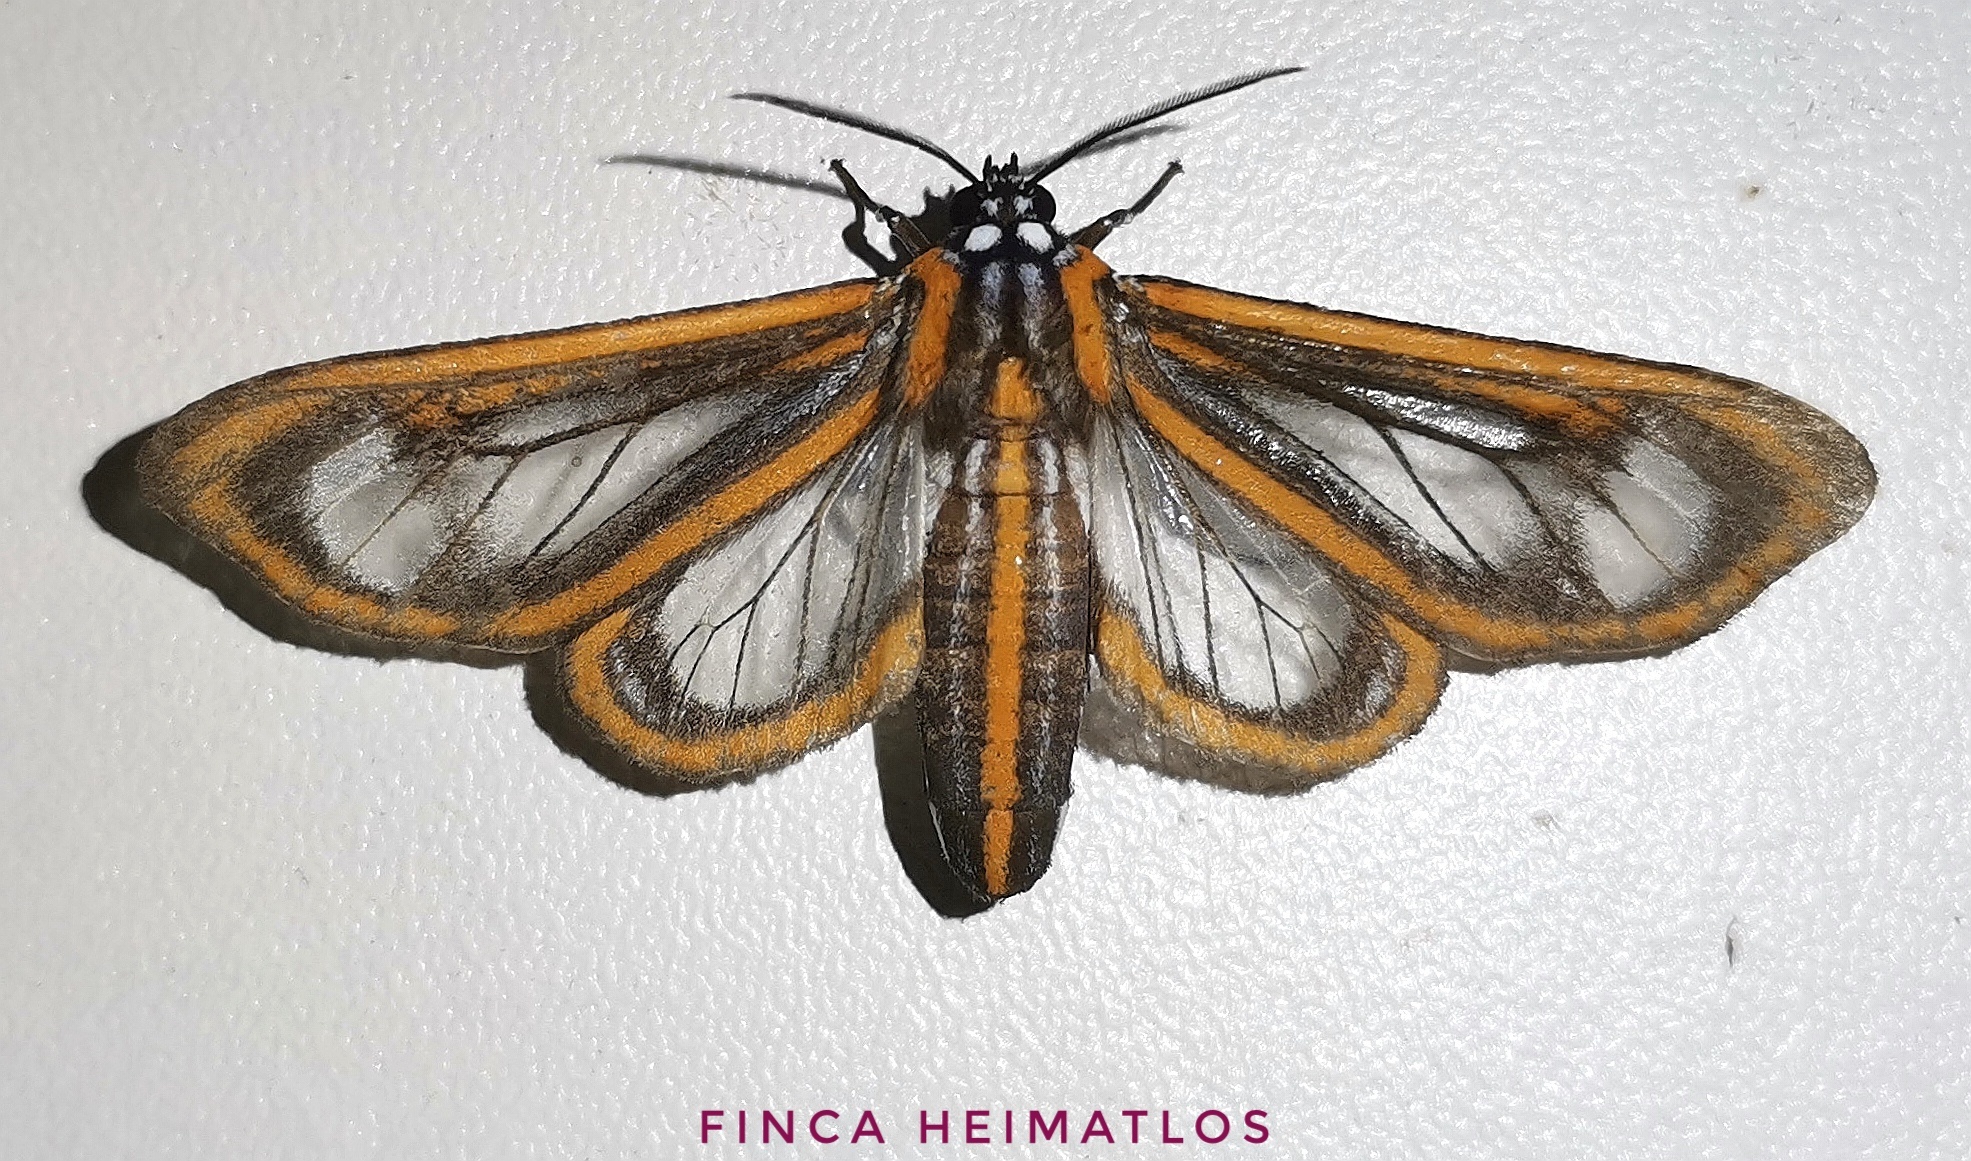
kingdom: Animalia
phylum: Arthropoda
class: Insecta
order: Lepidoptera
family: Erebidae
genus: Hyalurga
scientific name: Hyalurga dorsilinea
